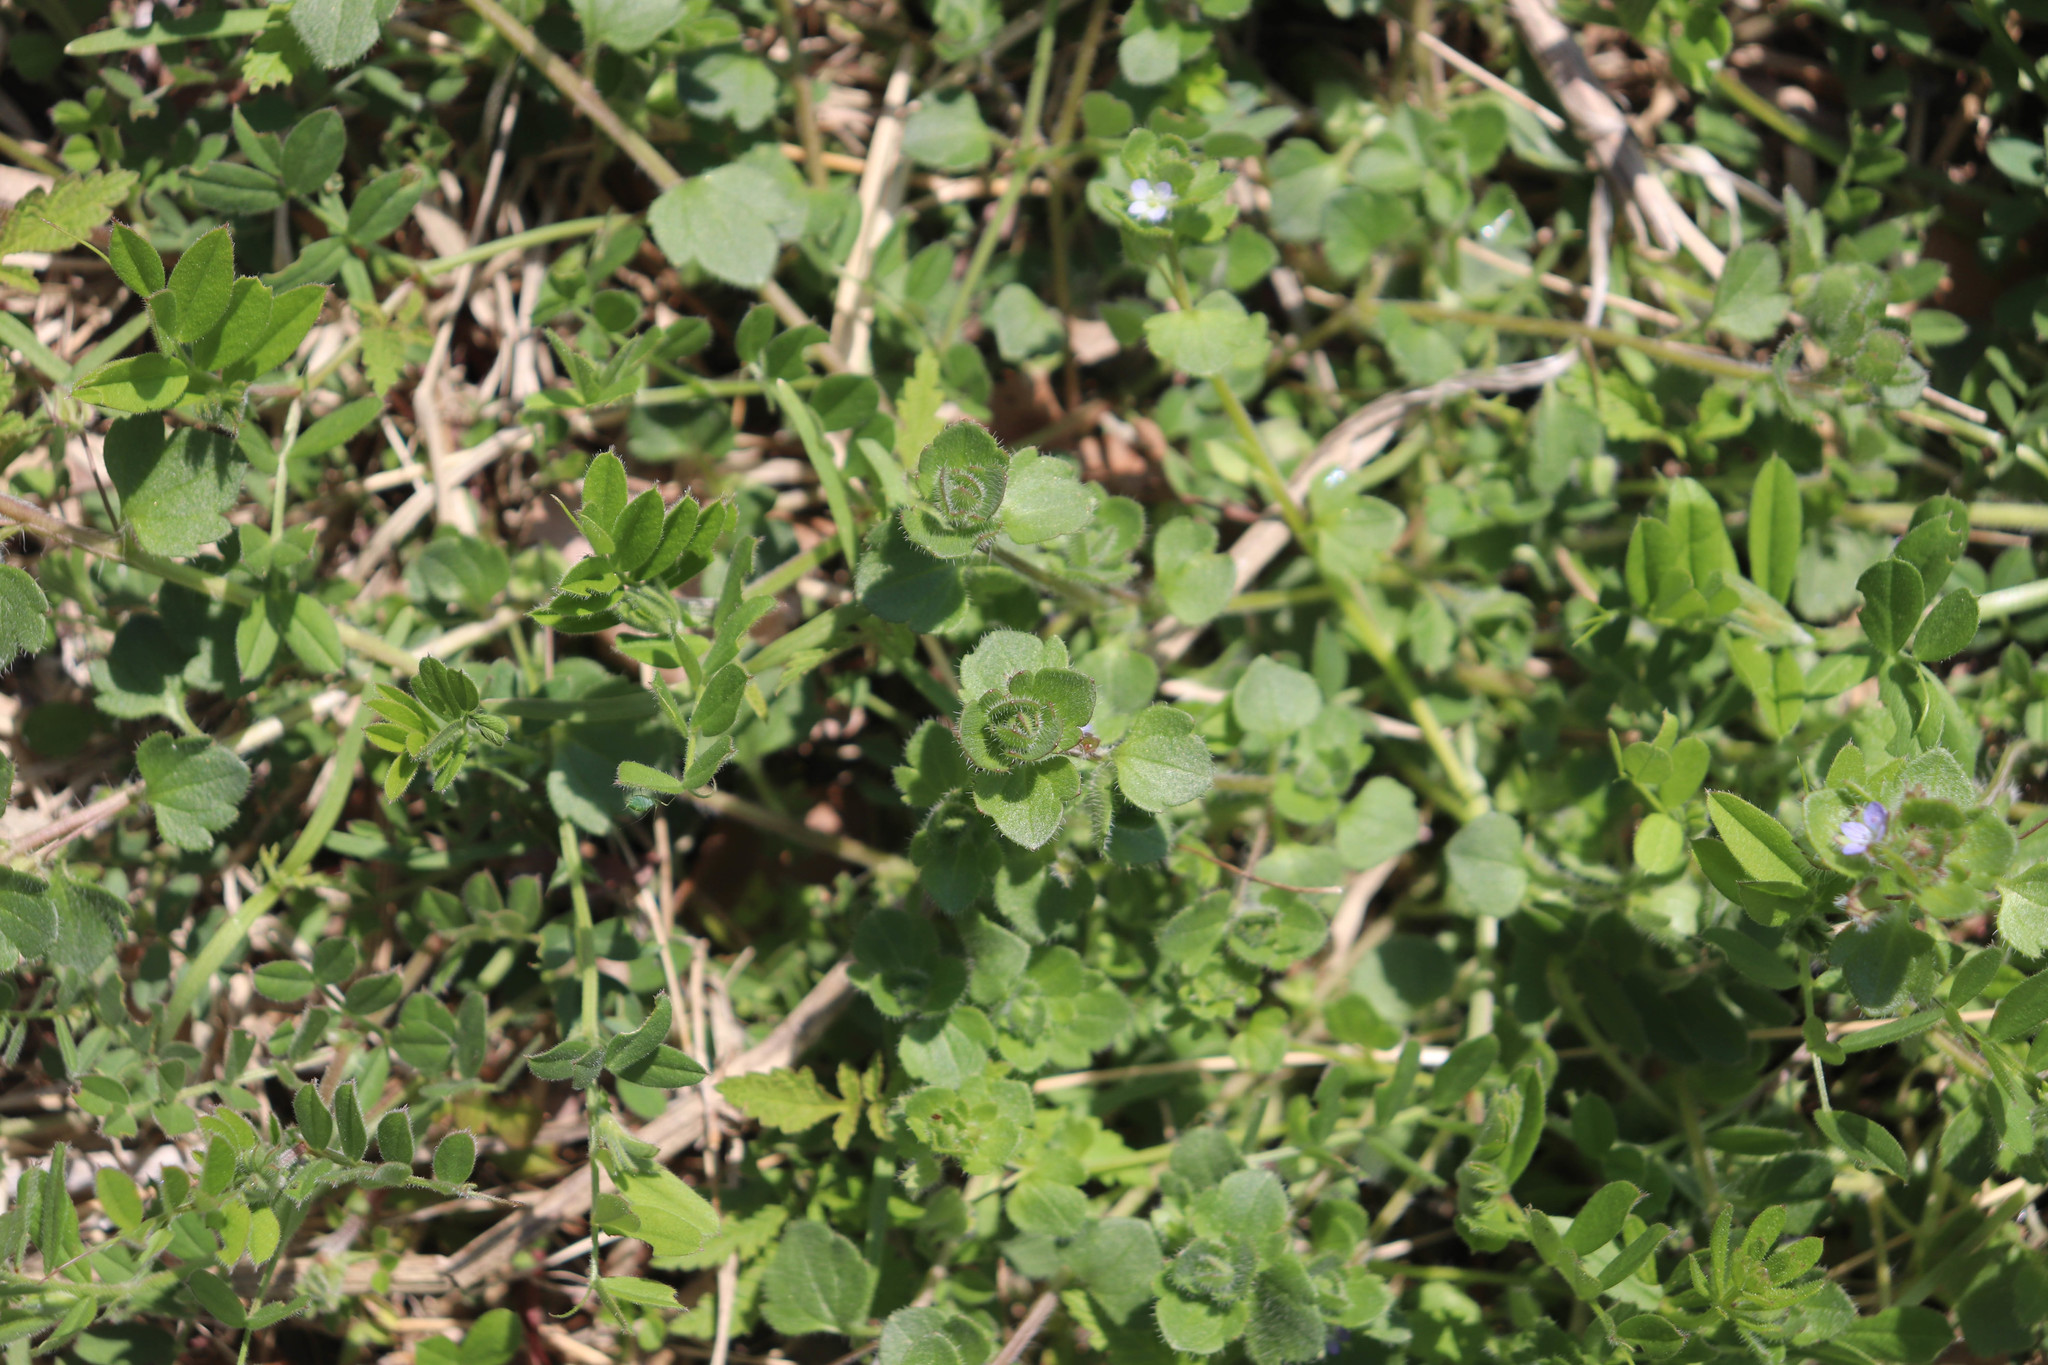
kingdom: Plantae
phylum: Tracheophyta
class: Magnoliopsida
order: Lamiales
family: Plantaginaceae
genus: Veronica
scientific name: Veronica hederifolia
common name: Ivy-leaved speedwell
